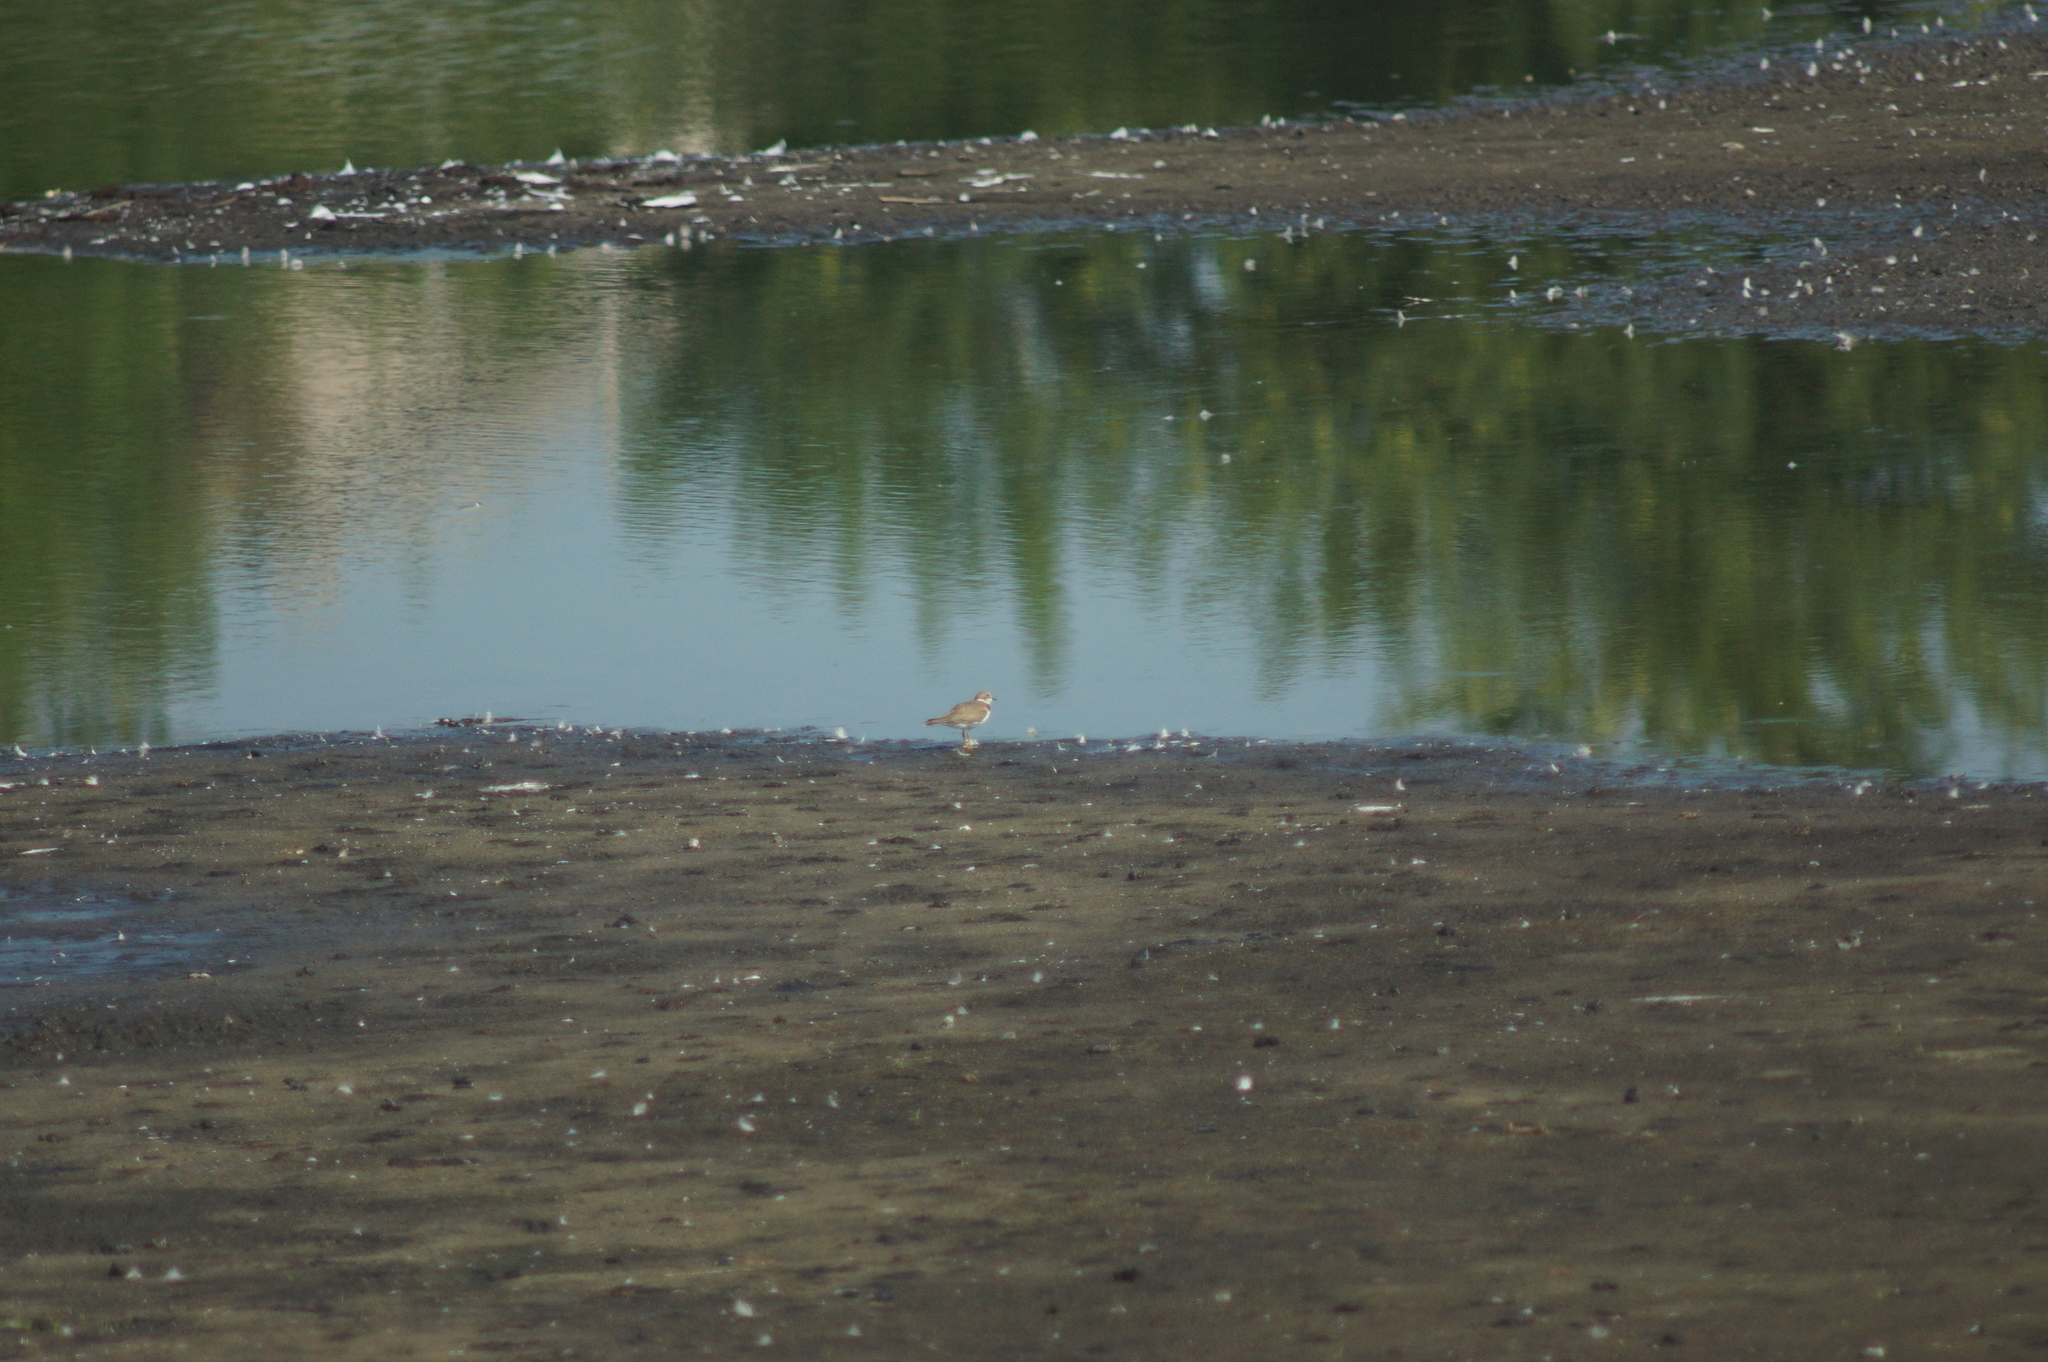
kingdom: Animalia
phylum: Chordata
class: Aves
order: Charadriiformes
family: Charadriidae
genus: Charadrius
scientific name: Charadrius dubius
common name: Little ringed plover
